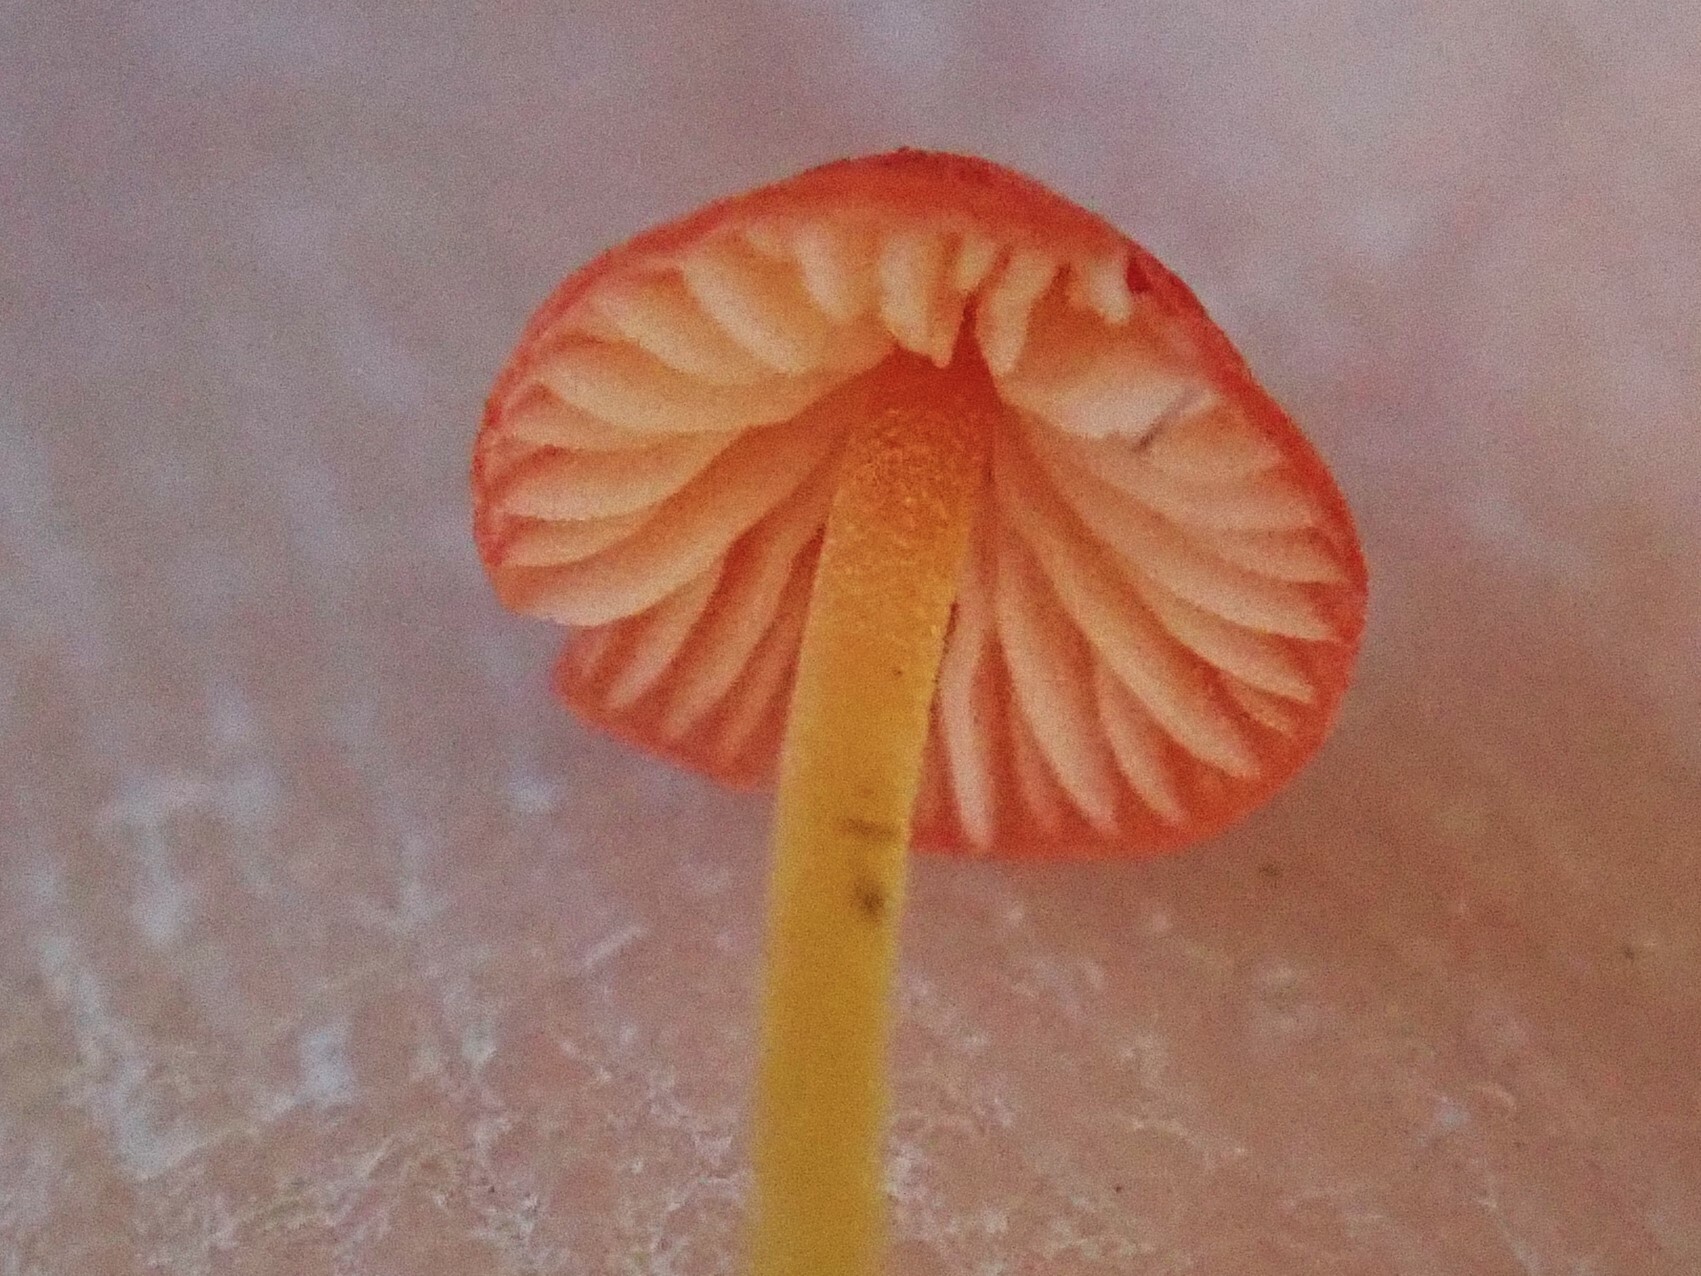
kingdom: Fungi
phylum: Basidiomycota
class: Agaricomycetes
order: Agaricales
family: Mycenaceae
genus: Mycena
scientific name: Mycena acicula
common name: Orange bonnet
